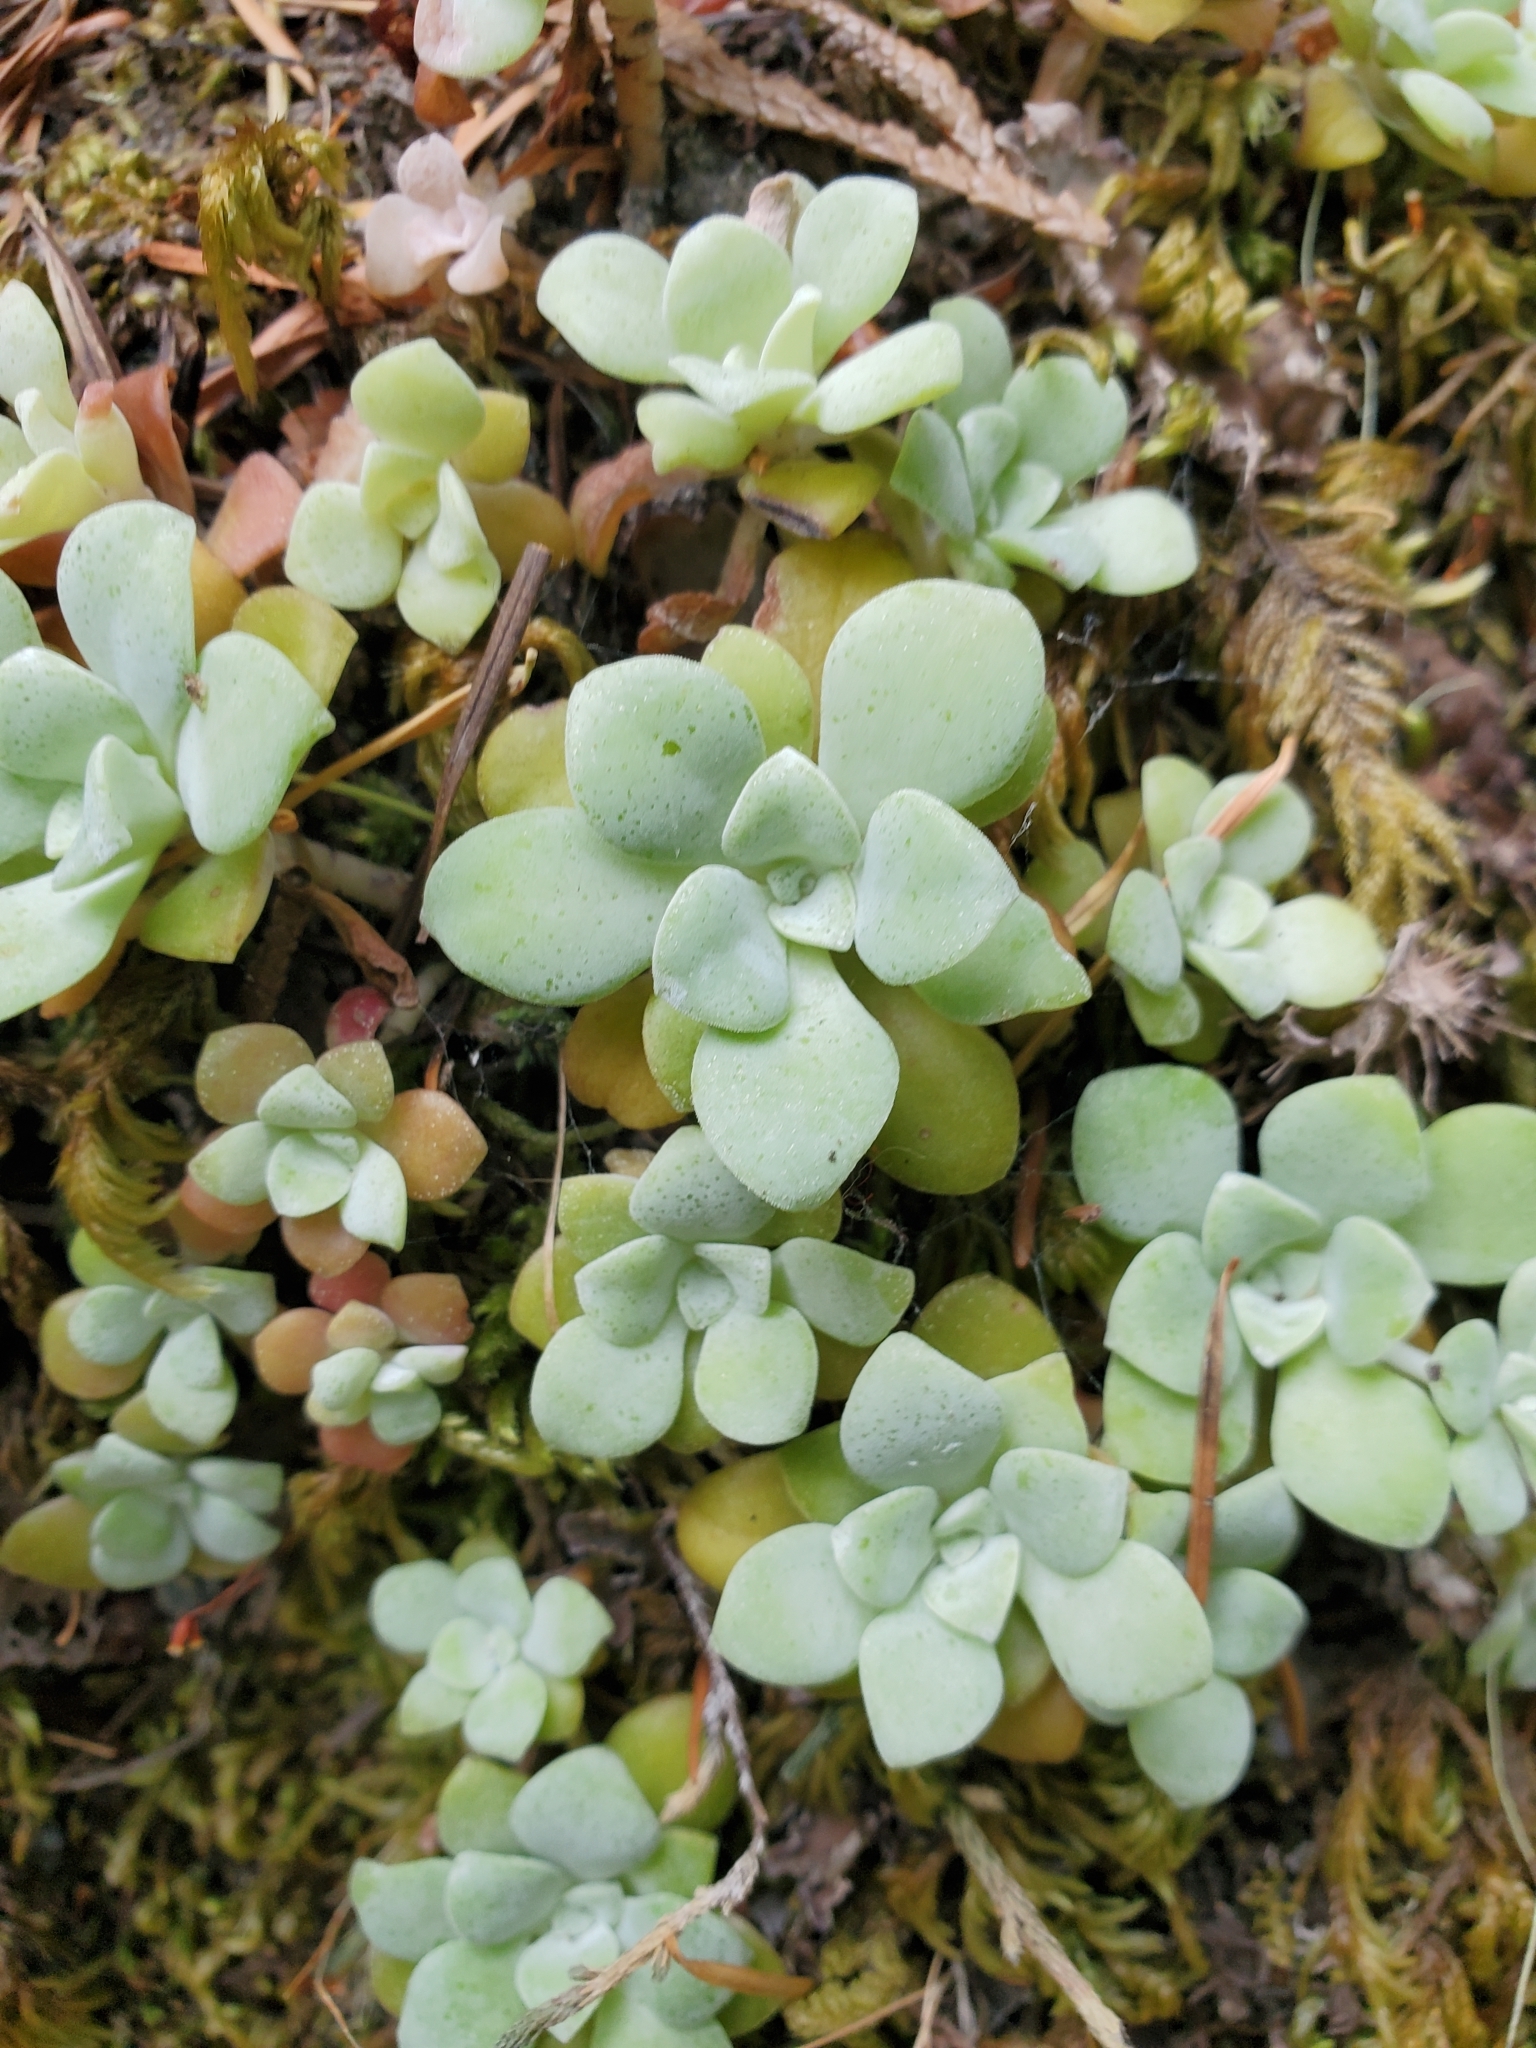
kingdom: Plantae
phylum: Tracheophyta
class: Magnoliopsida
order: Saxifragales
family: Crassulaceae
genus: Sedum
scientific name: Sedum spathulifolium
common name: Colorado stonecrop
